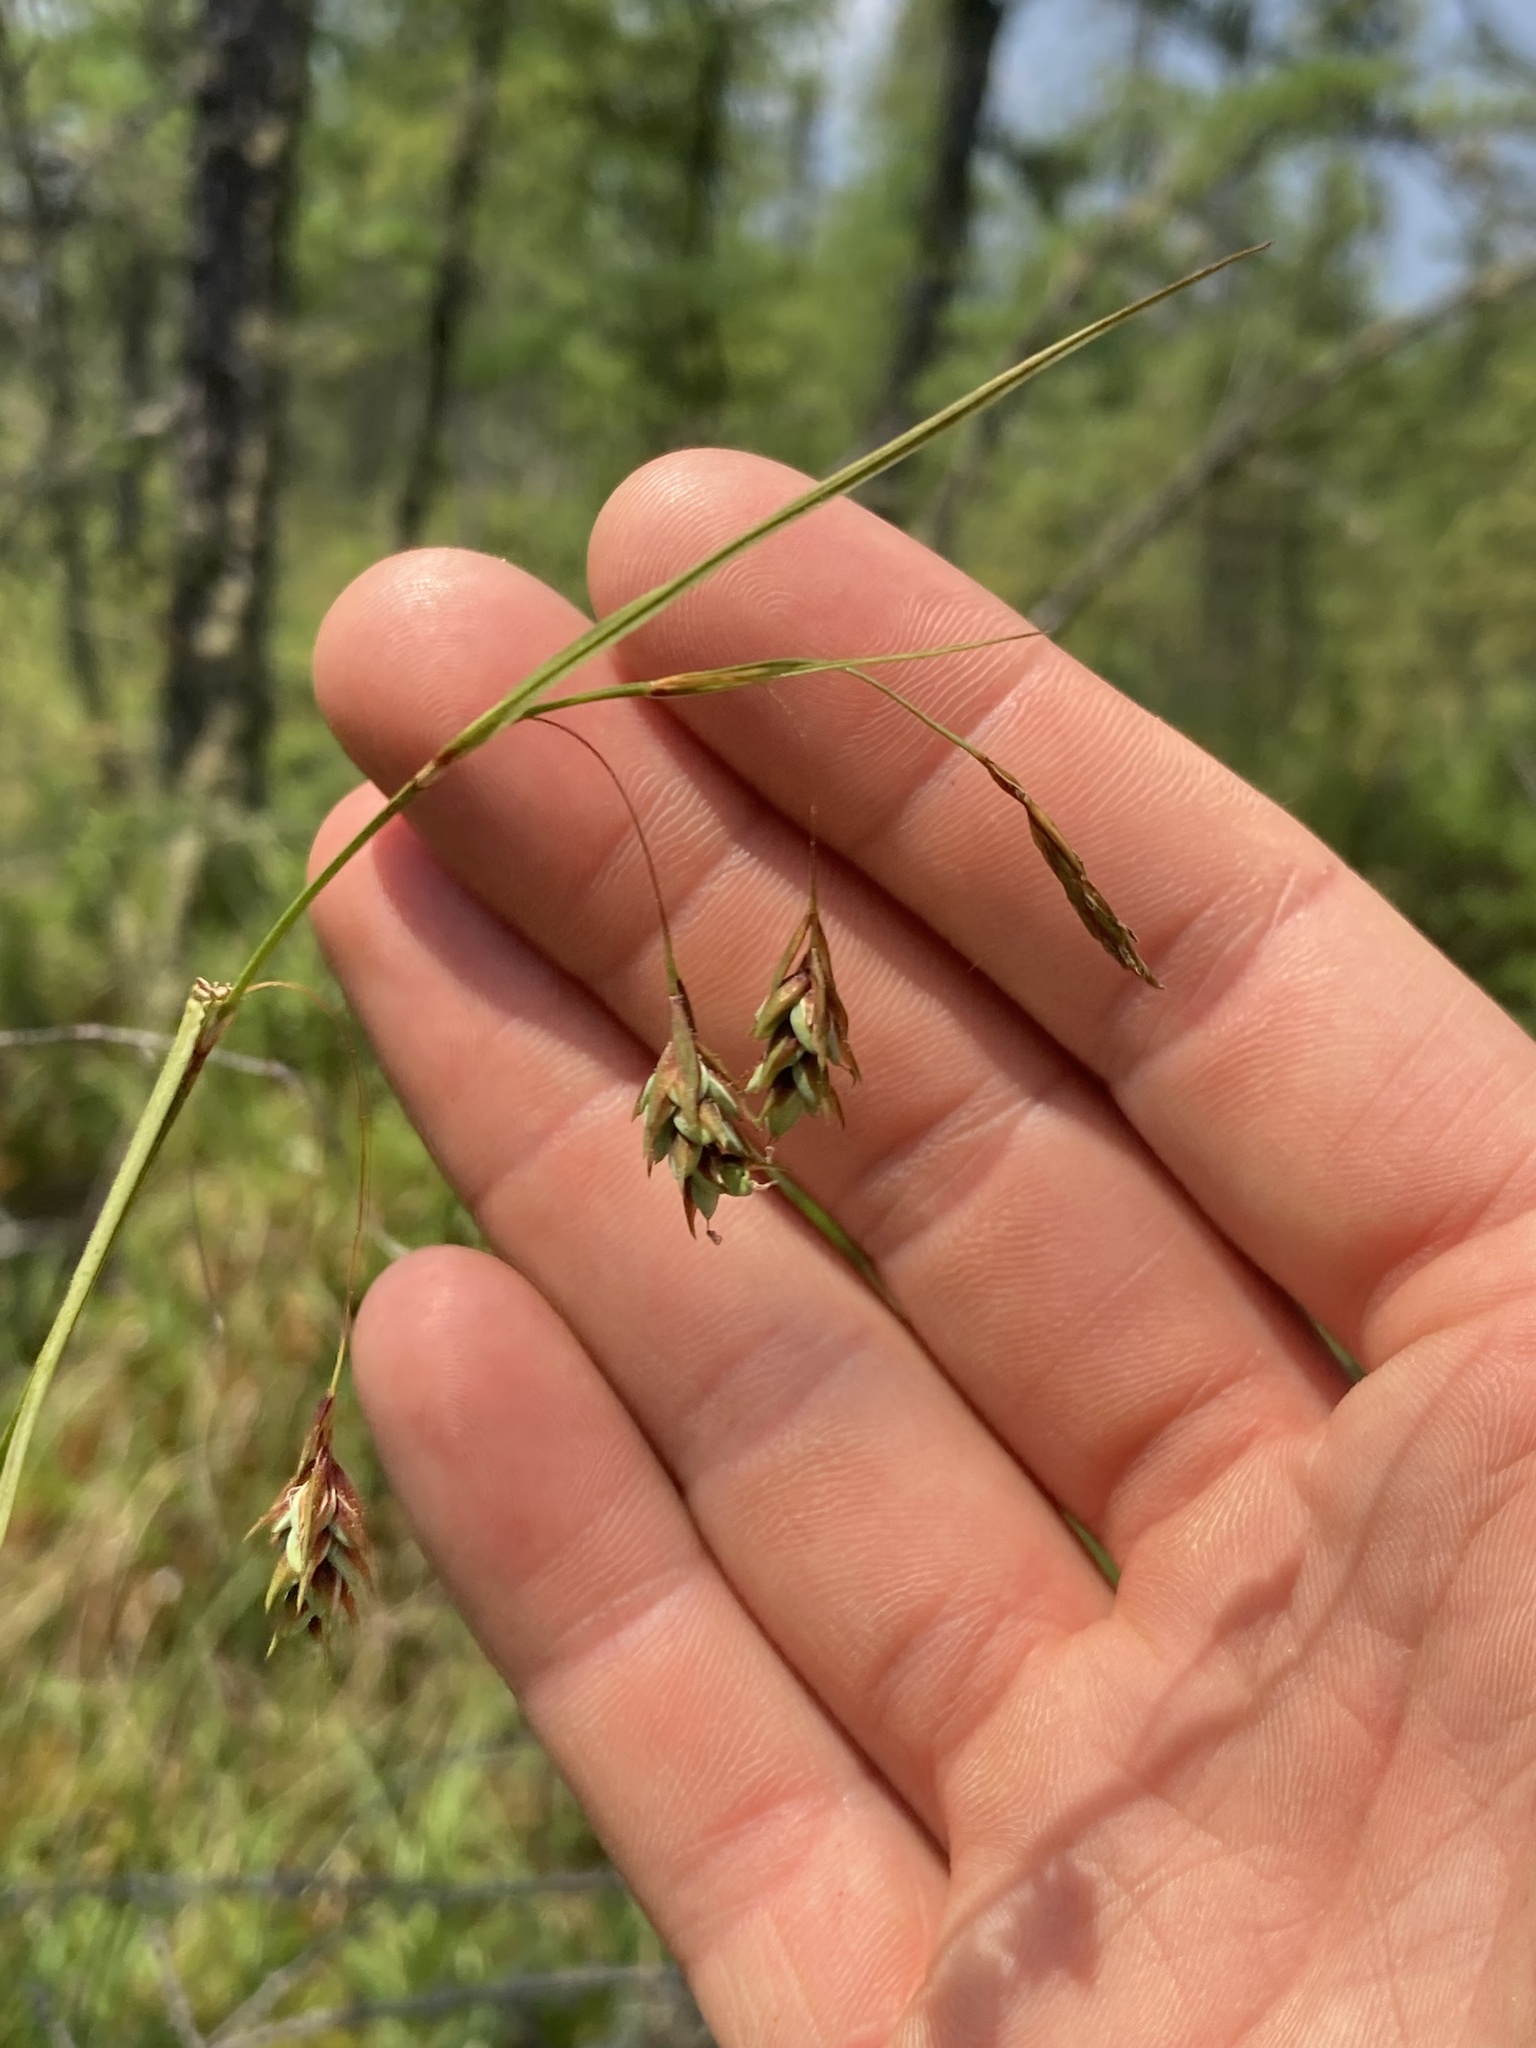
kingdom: Plantae
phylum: Tracheophyta
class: Liliopsida
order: Poales
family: Cyperaceae
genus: Carex
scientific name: Carex magellanica
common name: Bog sedge
